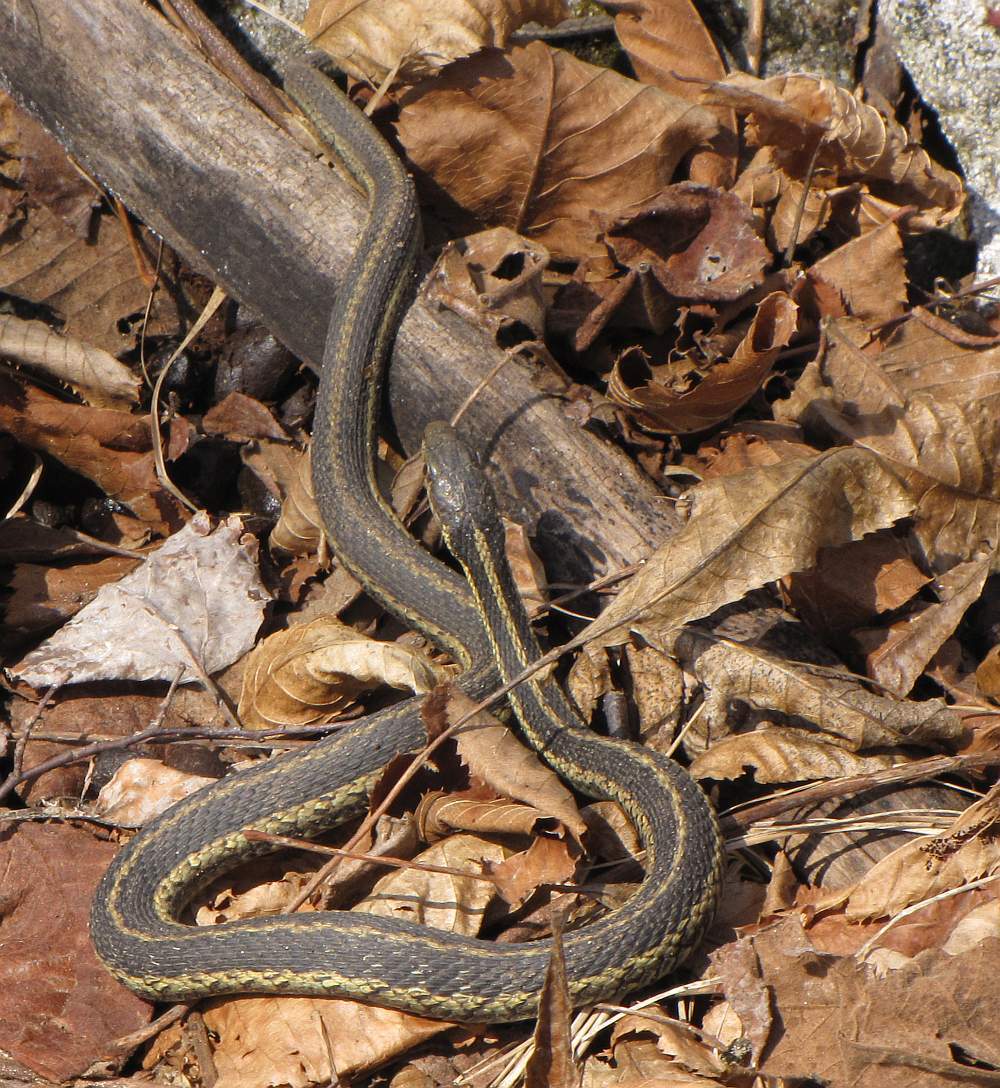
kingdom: Animalia
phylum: Chordata
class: Squamata
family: Colubridae
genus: Thamnophis
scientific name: Thamnophis sirtalis
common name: Common garter snake
